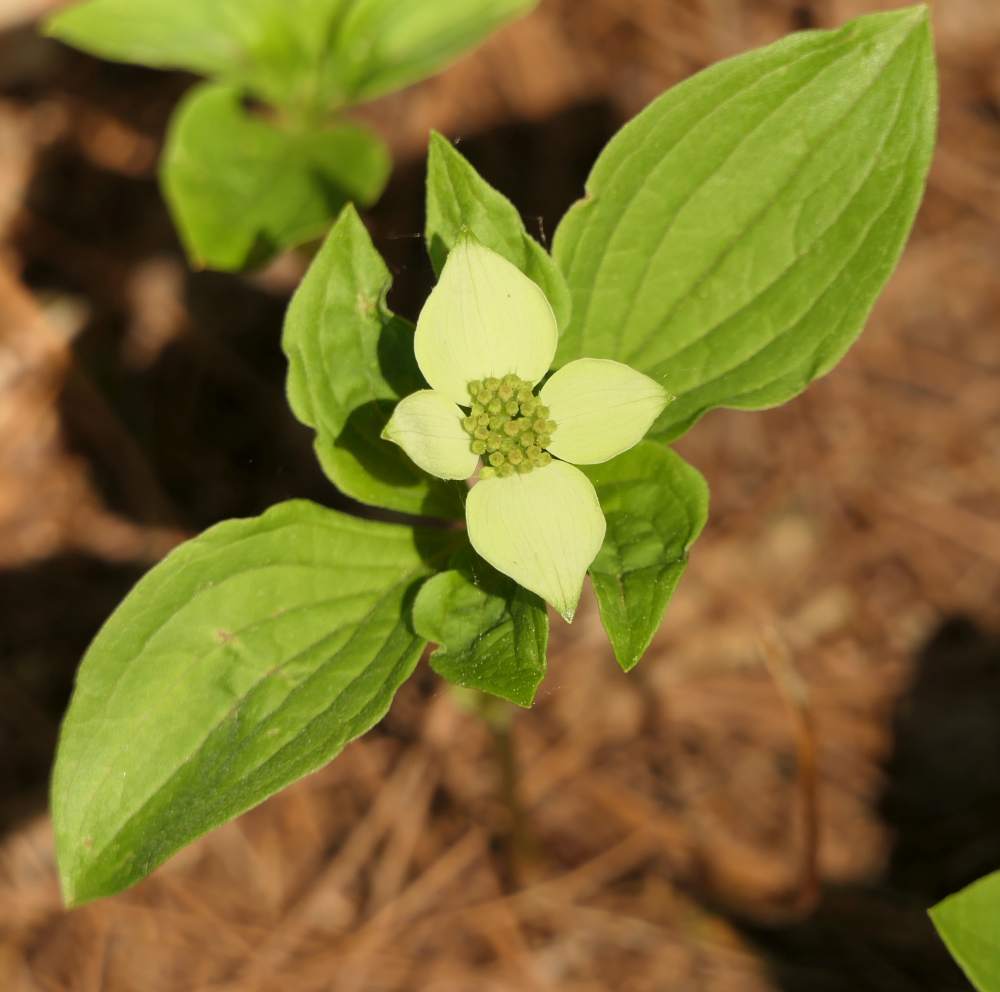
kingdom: Plantae
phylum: Tracheophyta
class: Magnoliopsida
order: Cornales
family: Cornaceae
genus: Cornus
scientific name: Cornus canadensis
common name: Creeping dogwood
